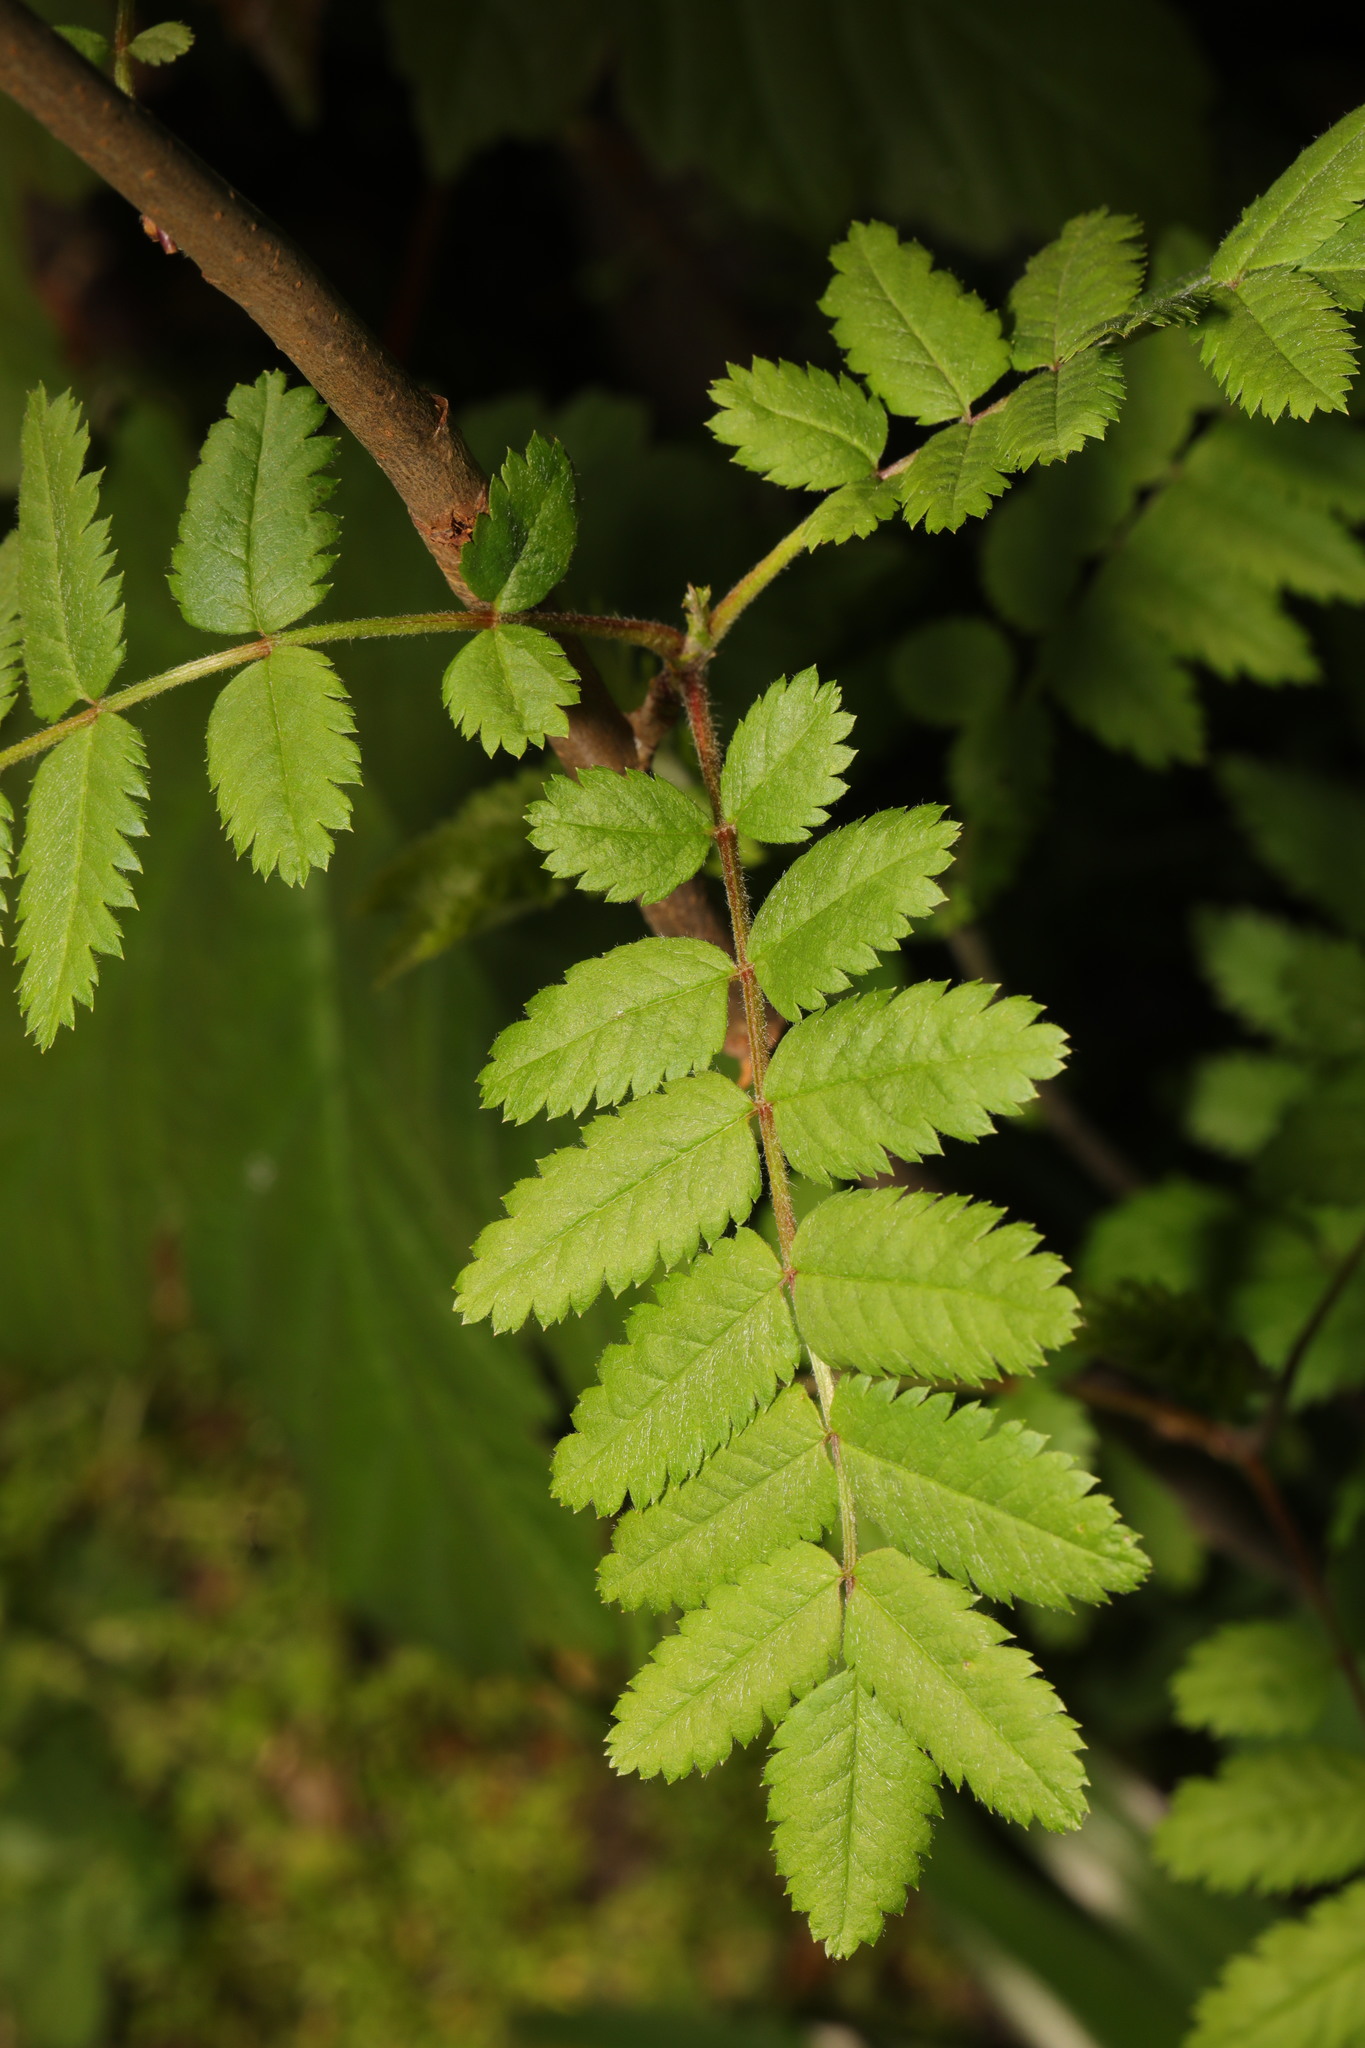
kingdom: Plantae
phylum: Tracheophyta
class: Magnoliopsida
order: Rosales
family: Rosaceae
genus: Sorbus
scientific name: Sorbus aucuparia
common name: Rowan
